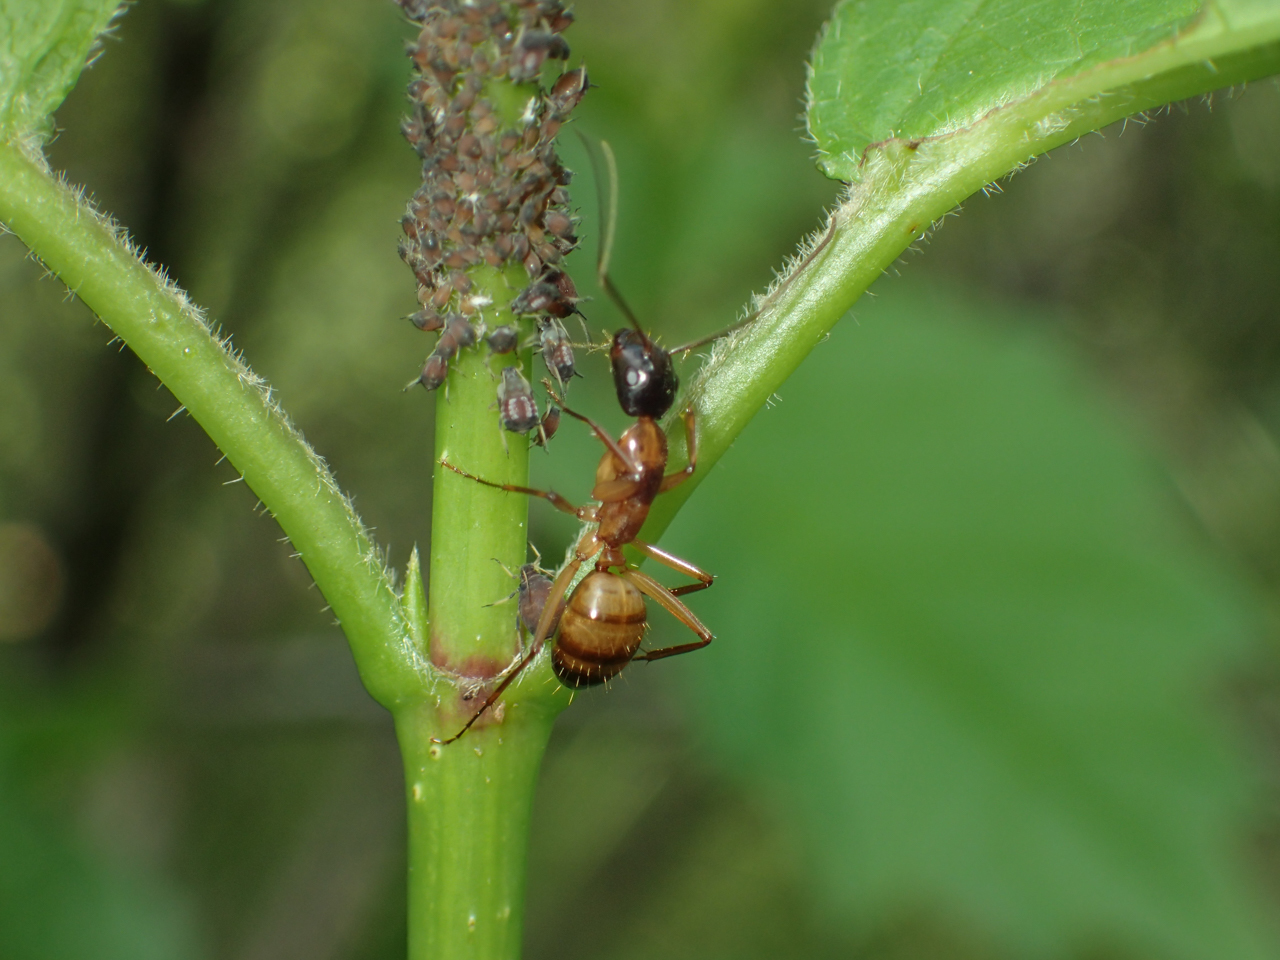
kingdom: Animalia
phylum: Arthropoda
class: Insecta
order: Hymenoptera
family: Formicidae
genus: Camponotus
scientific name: Camponotus americanus
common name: American carpenter ant
